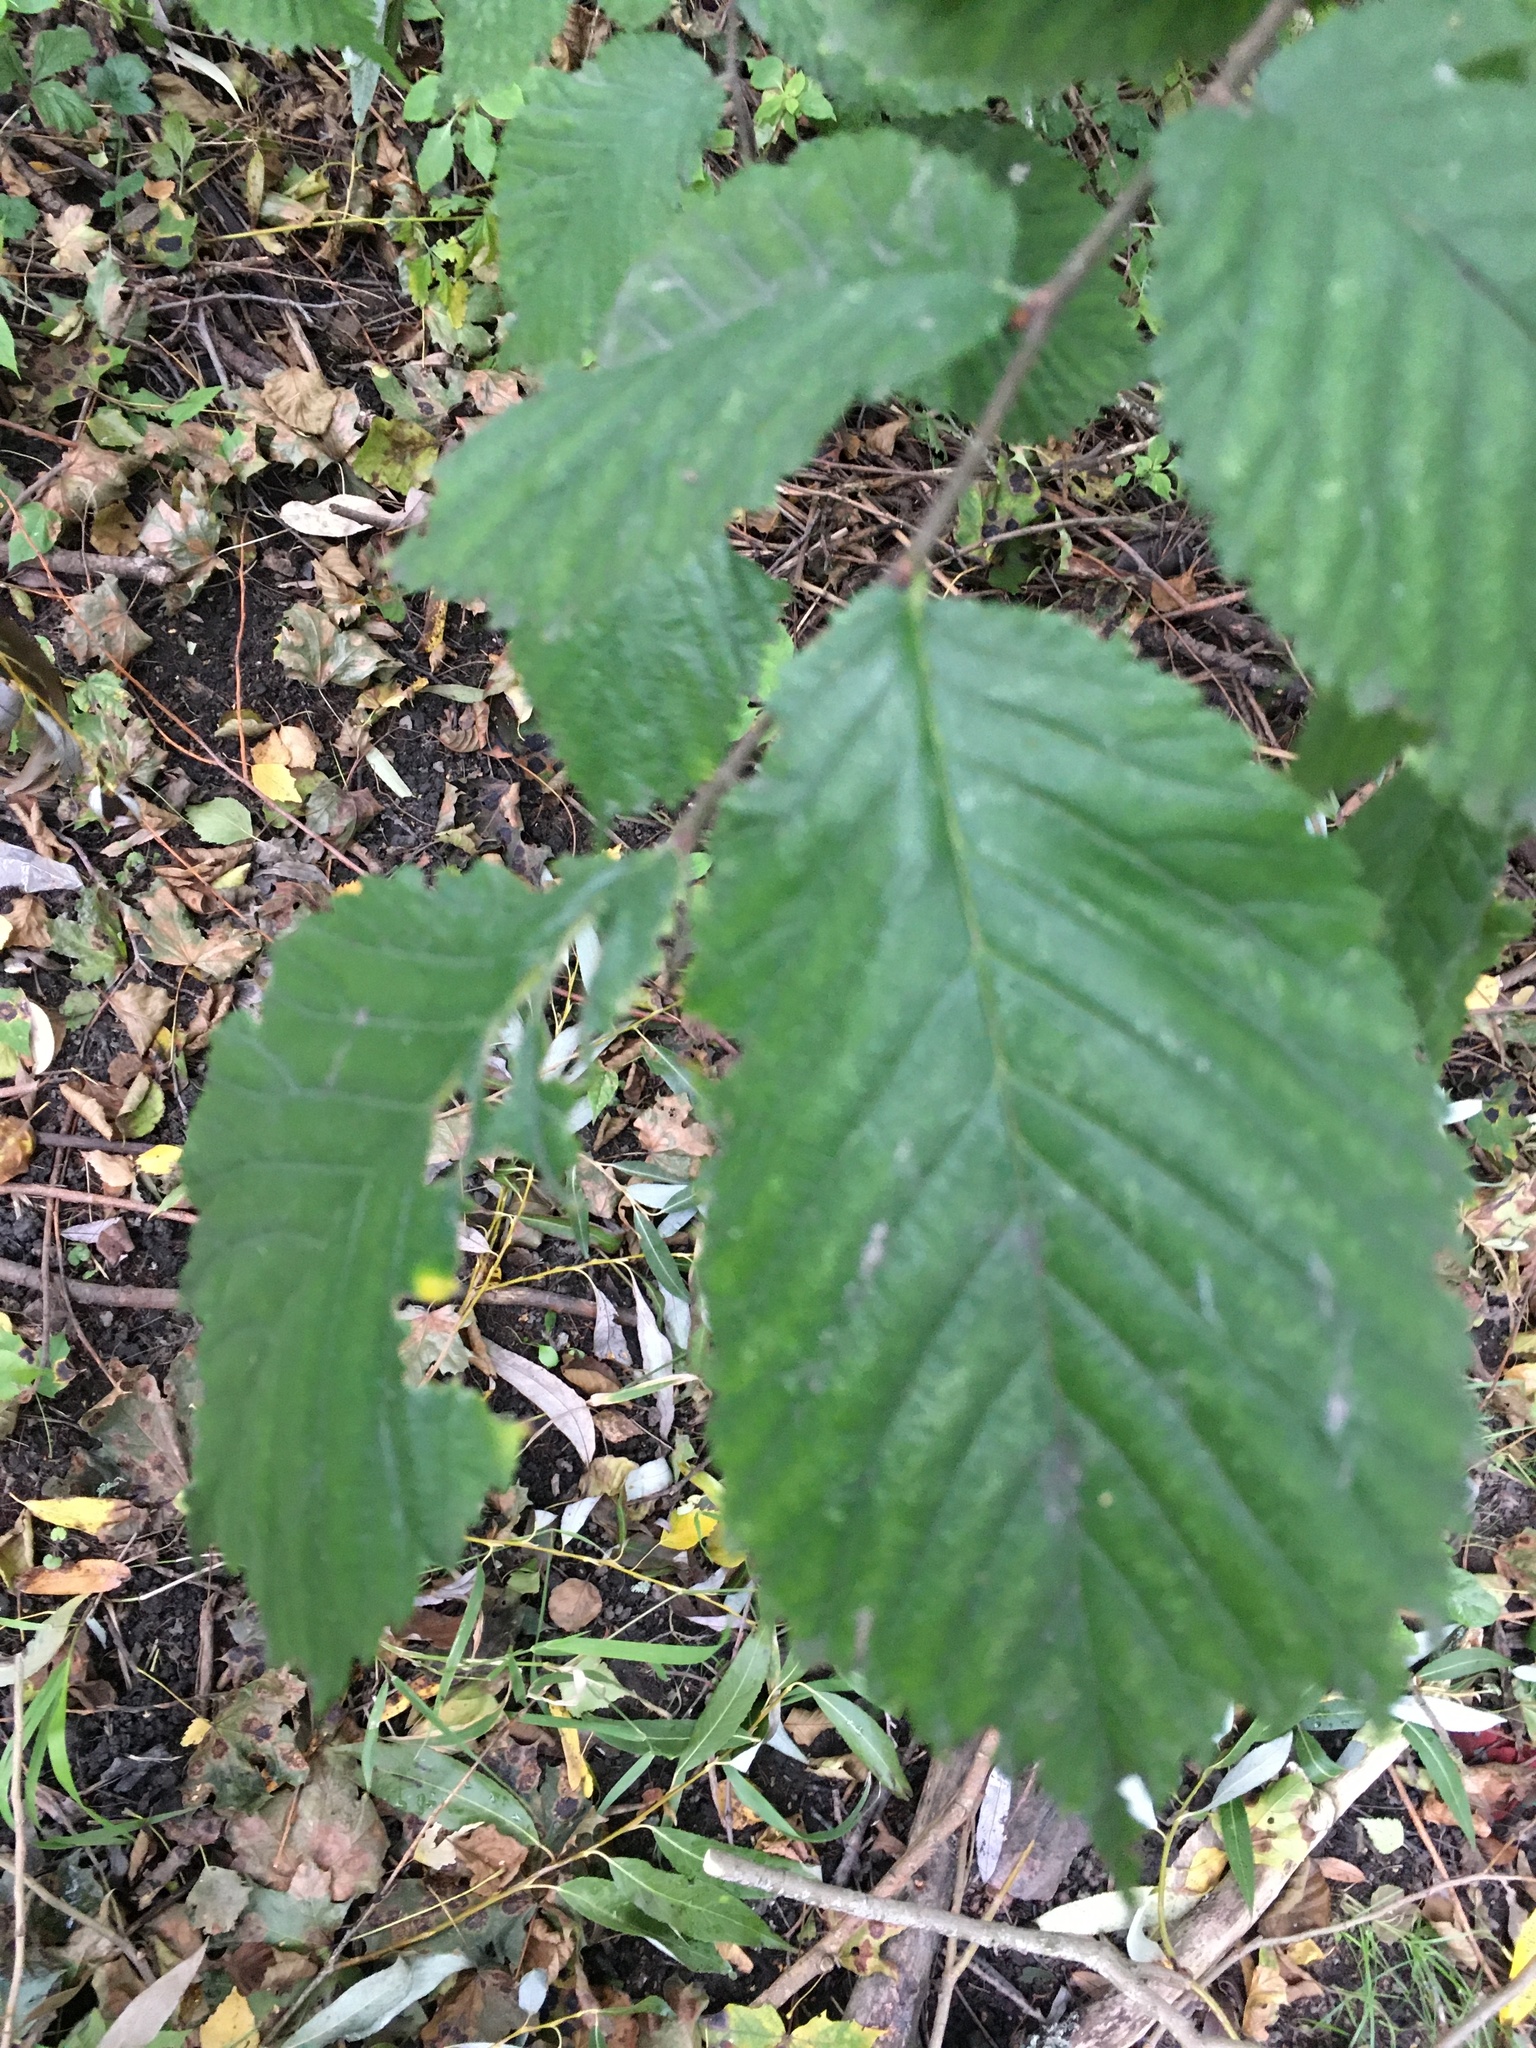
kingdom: Plantae
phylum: Tracheophyta
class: Magnoliopsida
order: Rosales
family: Ulmaceae
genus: Ulmus
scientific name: Ulmus glabra
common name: Wych elm
